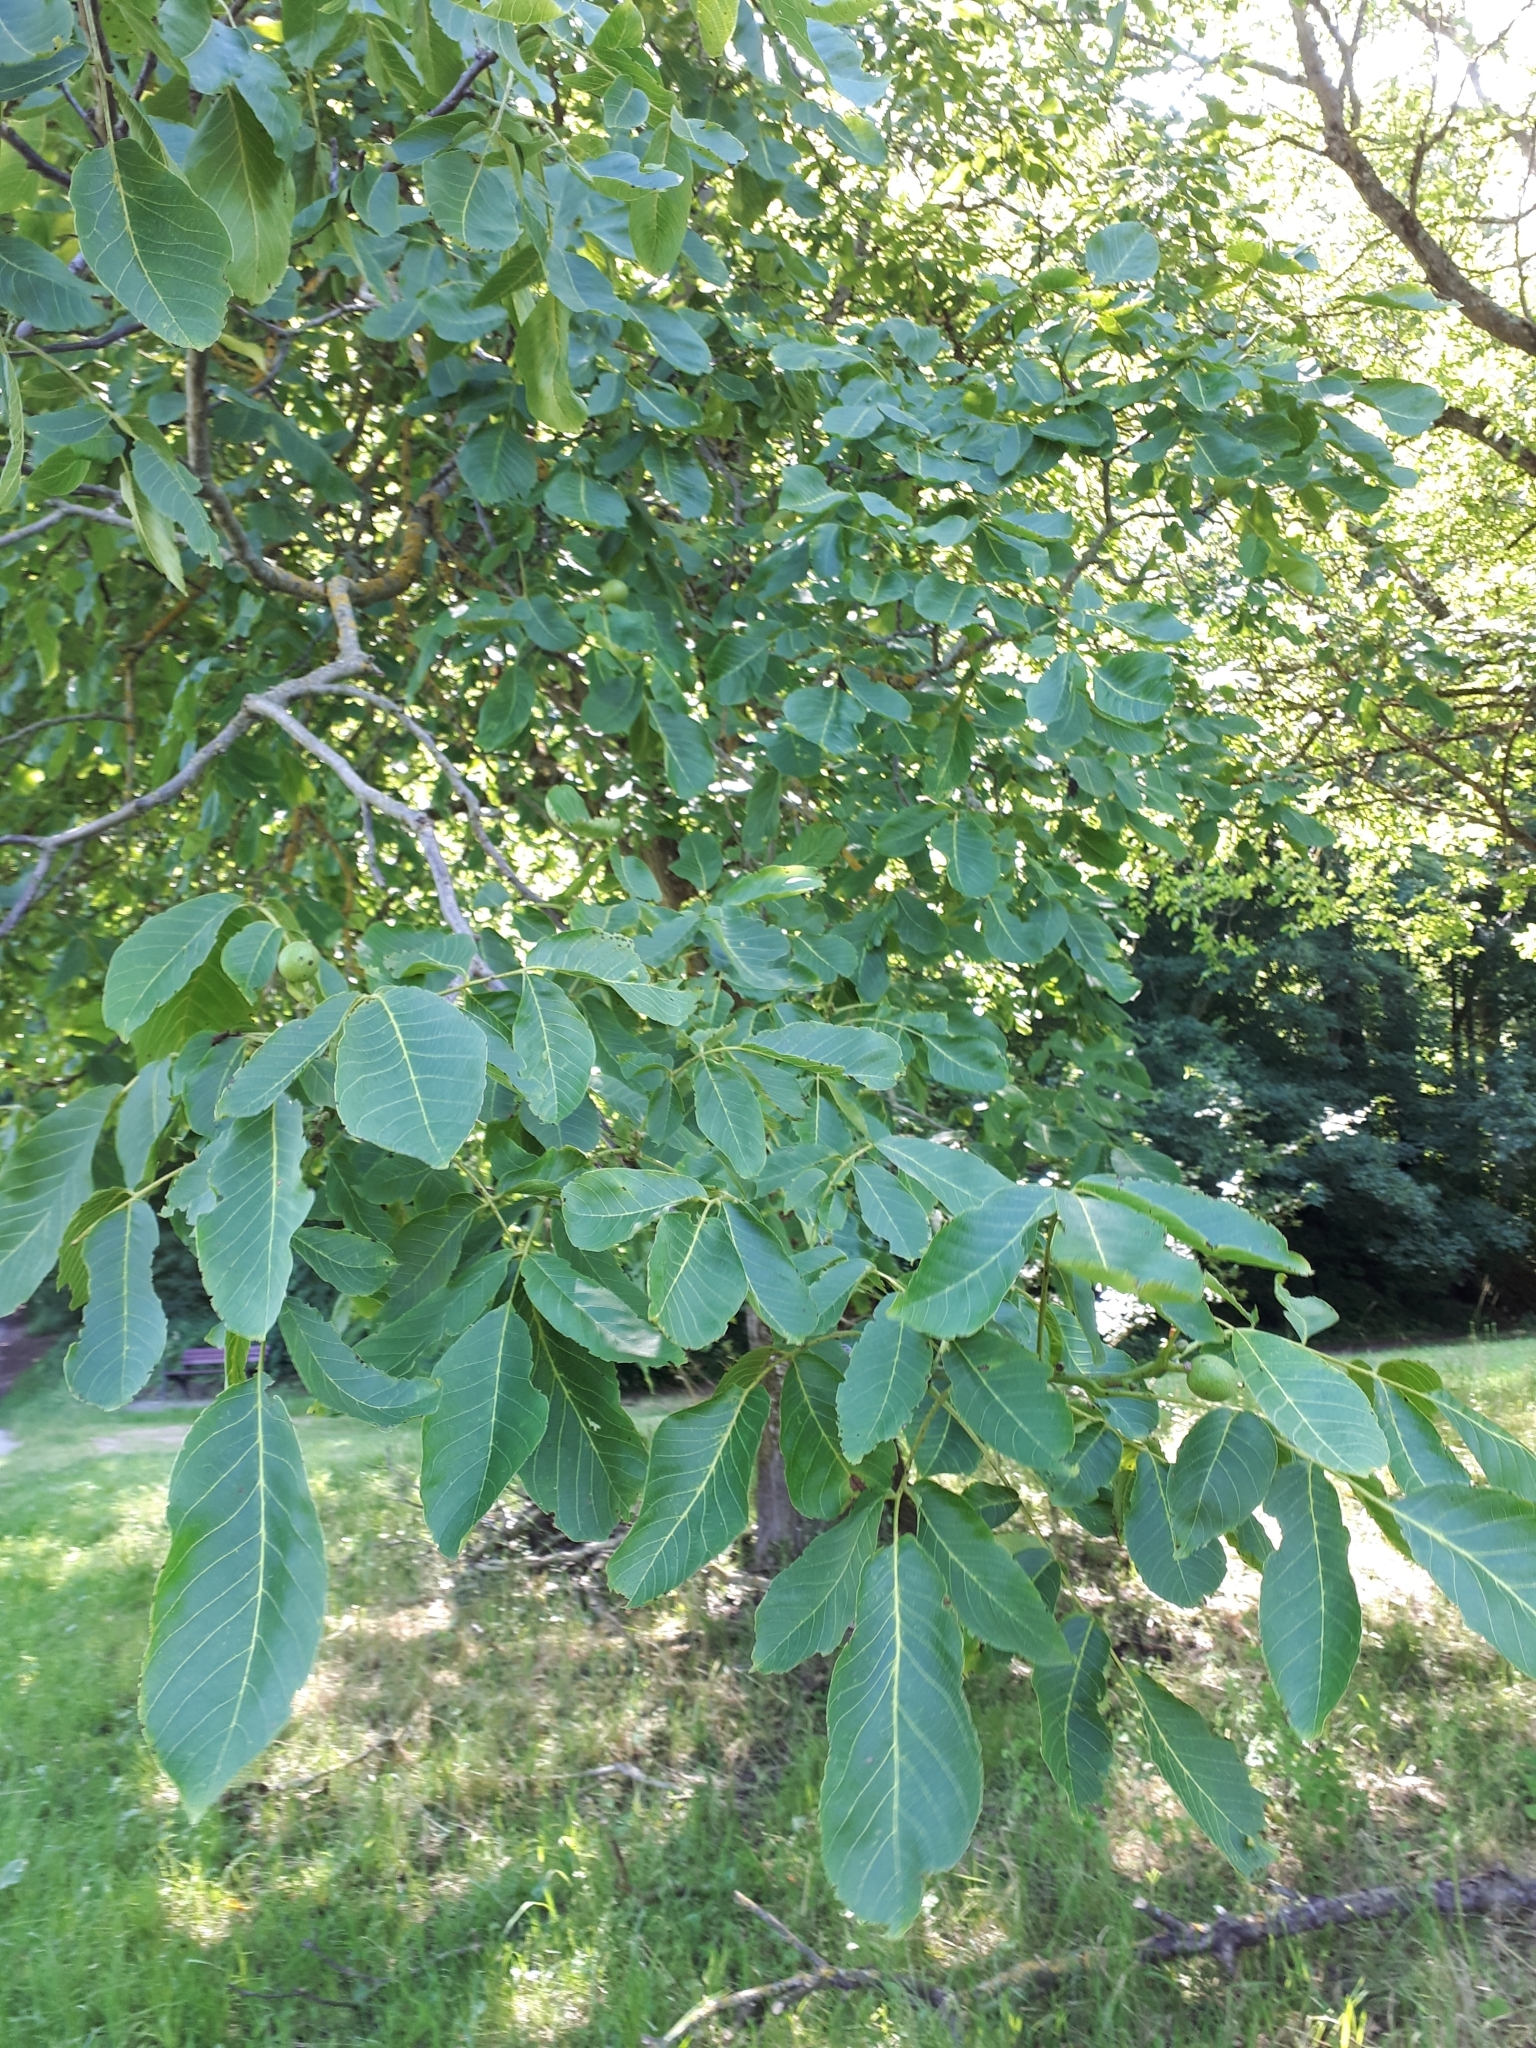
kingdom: Plantae
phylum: Tracheophyta
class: Magnoliopsida
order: Fagales
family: Juglandaceae
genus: Juglans
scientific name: Juglans regia
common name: Walnut
